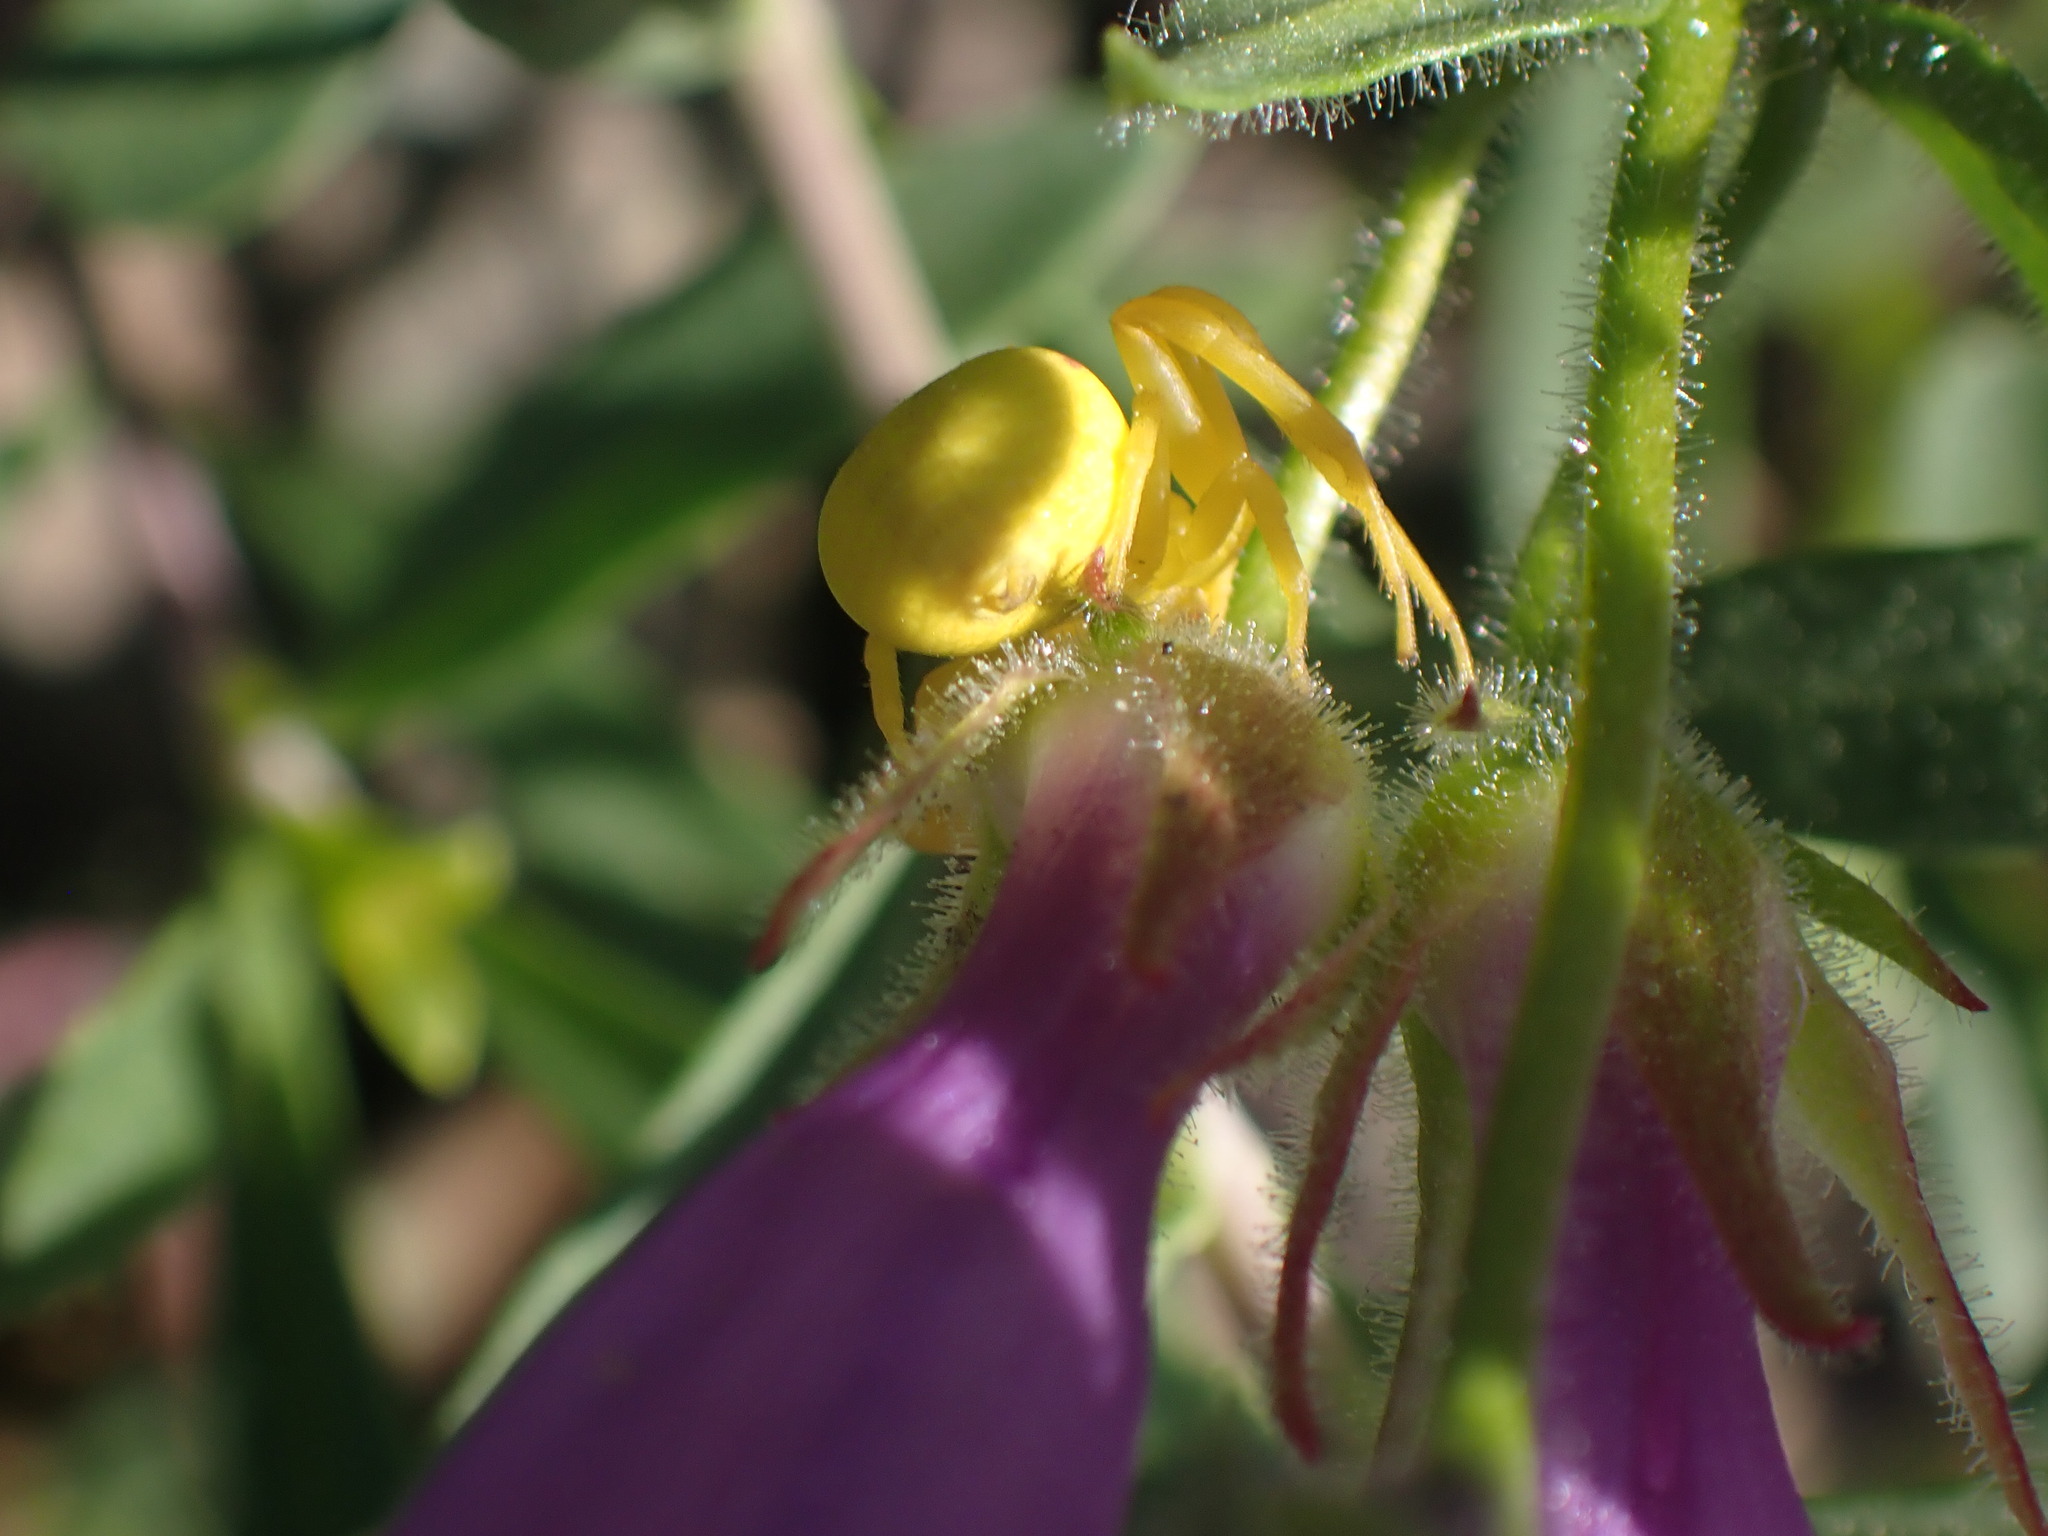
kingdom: Animalia
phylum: Arthropoda
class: Arachnida
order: Araneae
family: Thomisidae
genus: Misumena
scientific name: Misumena vatia
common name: Goldenrod crab spider
